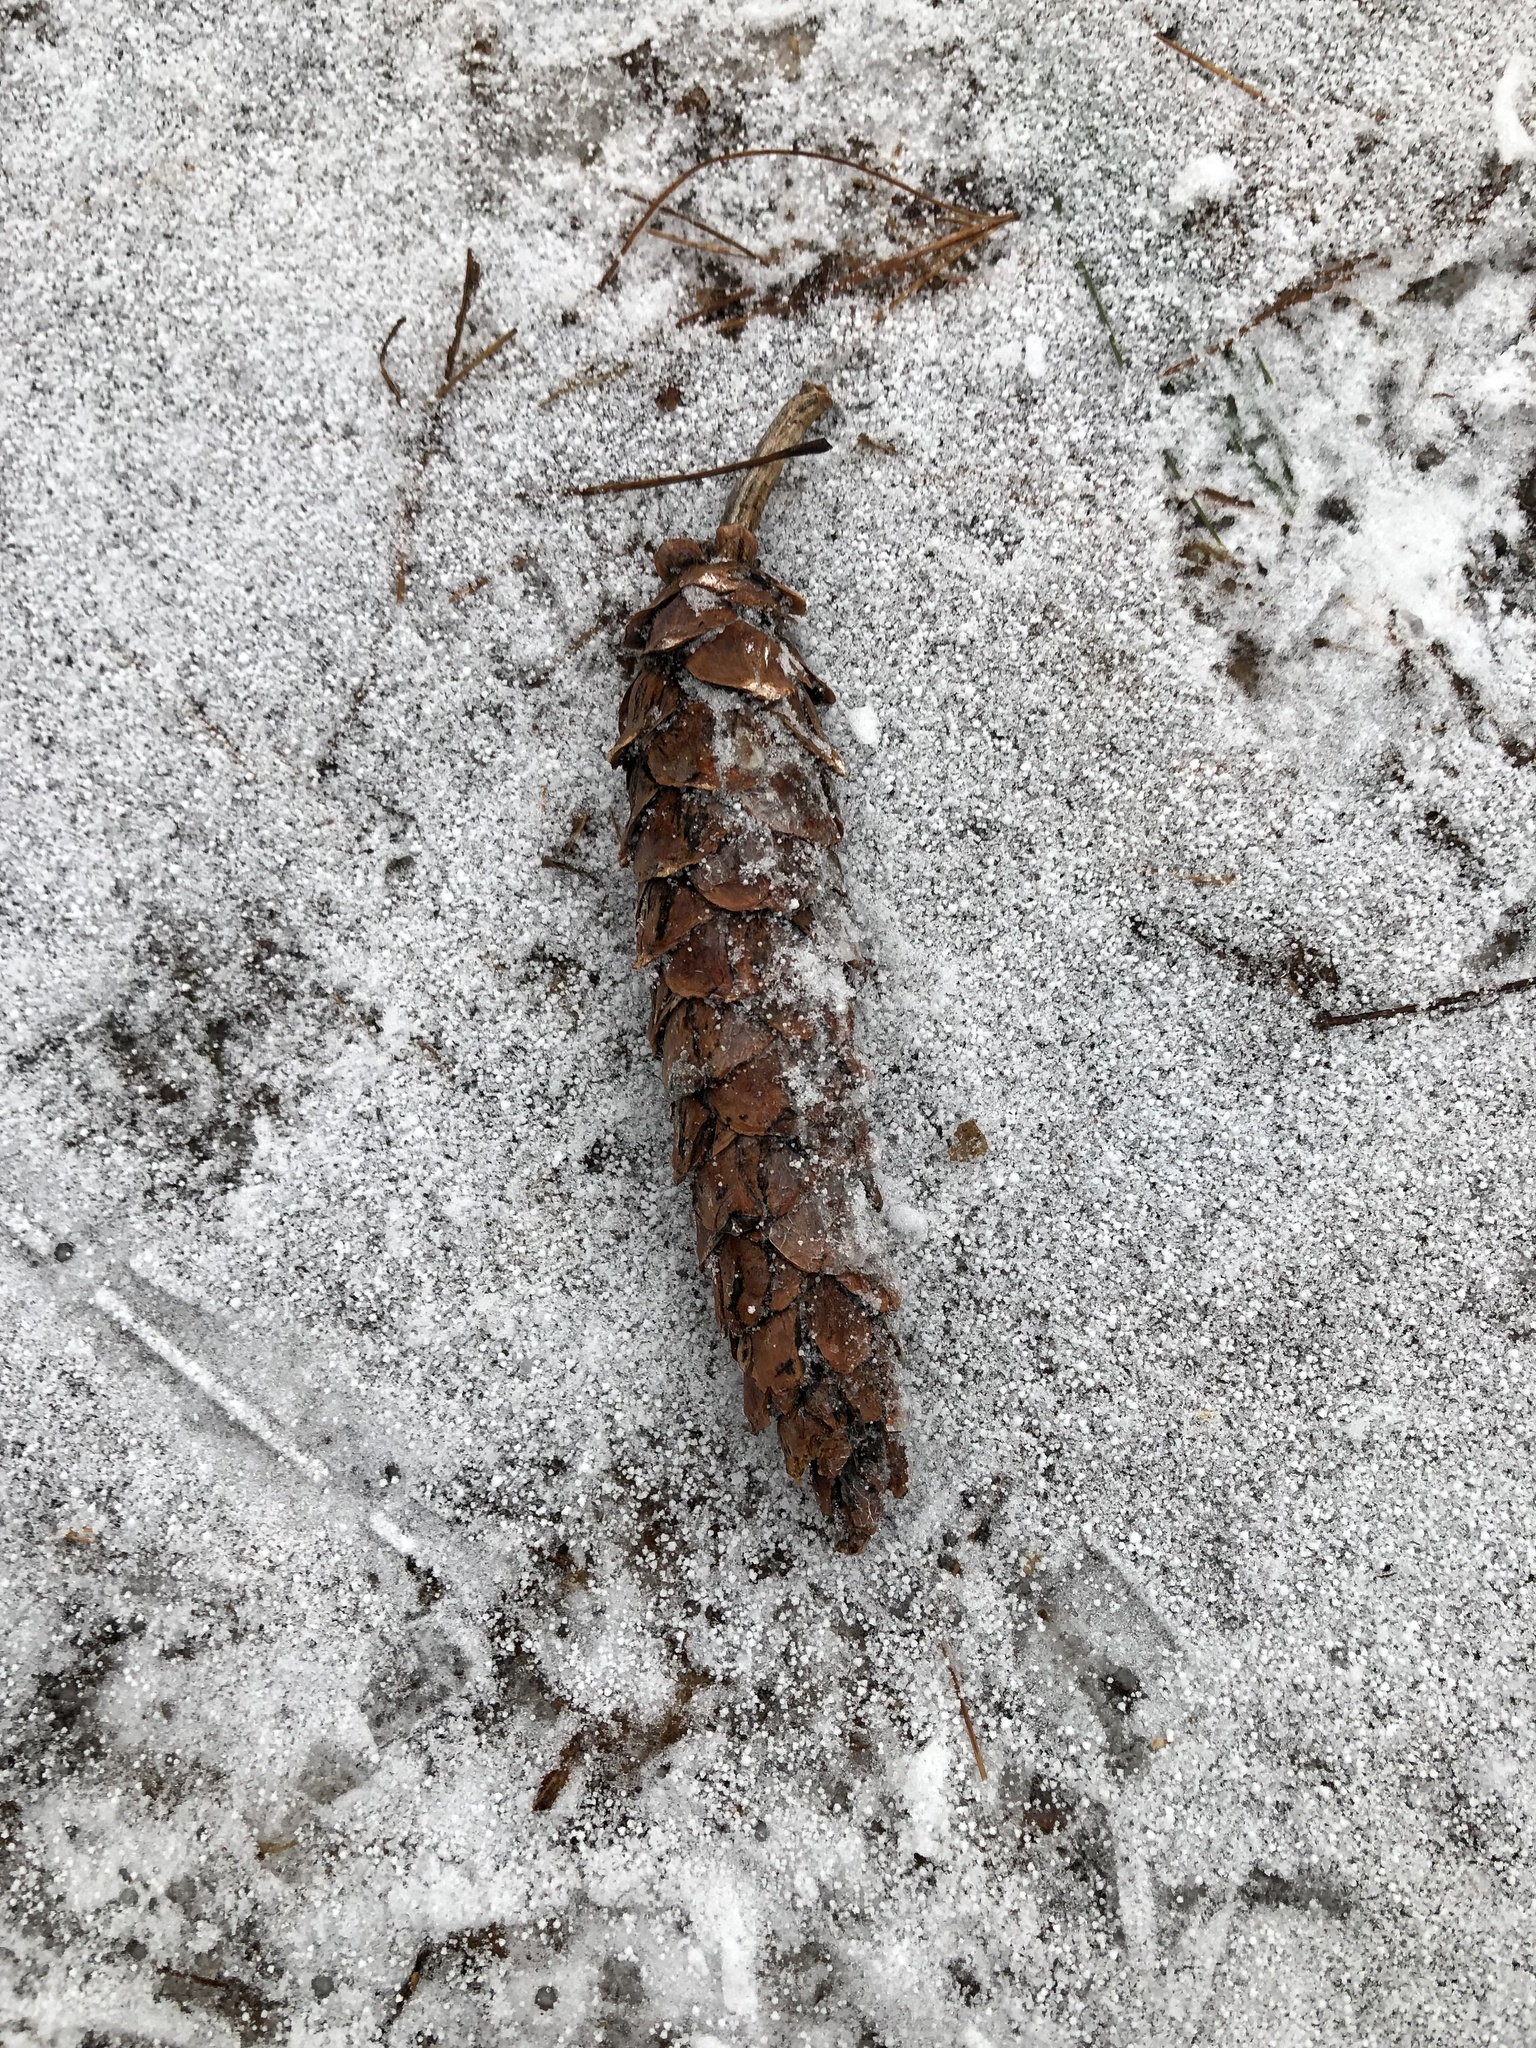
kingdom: Plantae
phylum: Tracheophyta
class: Pinopsida
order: Pinales
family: Pinaceae
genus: Pinus
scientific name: Pinus strobus
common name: Weymouth pine
